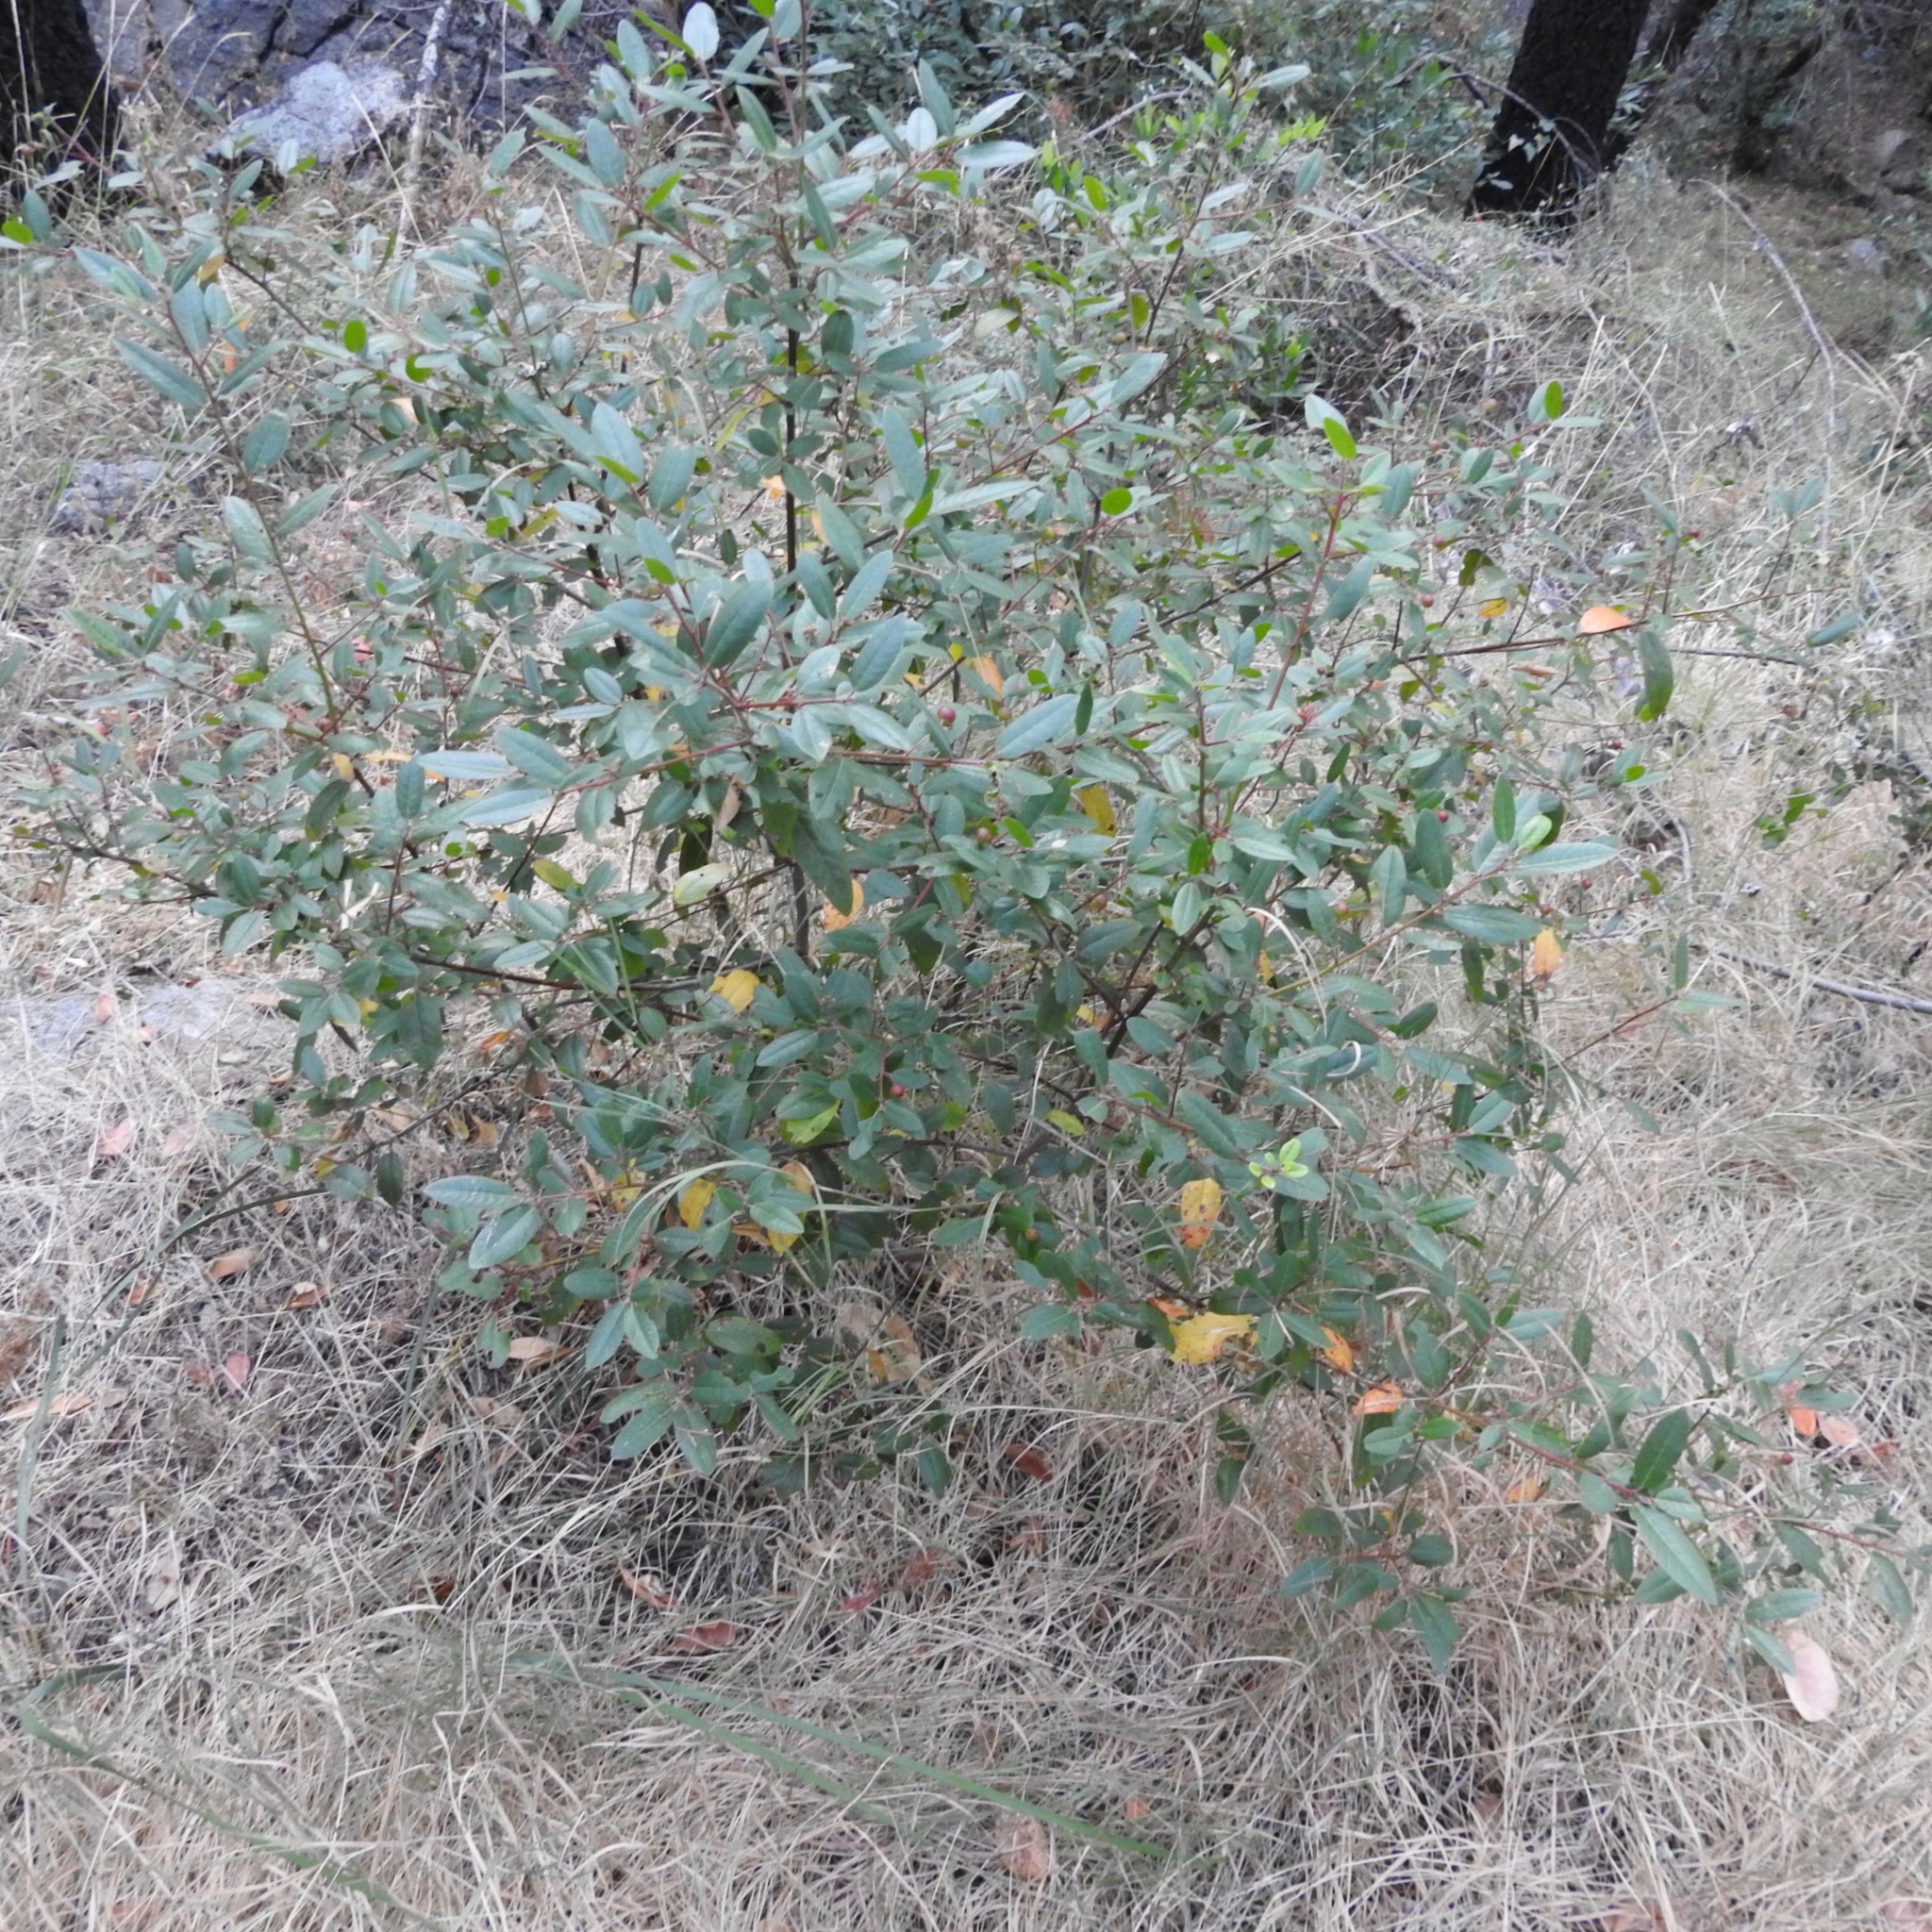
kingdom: Plantae
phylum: Tracheophyta
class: Magnoliopsida
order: Rosales
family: Rhamnaceae
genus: Frangula
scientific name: Frangula californica
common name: California buckthorn
